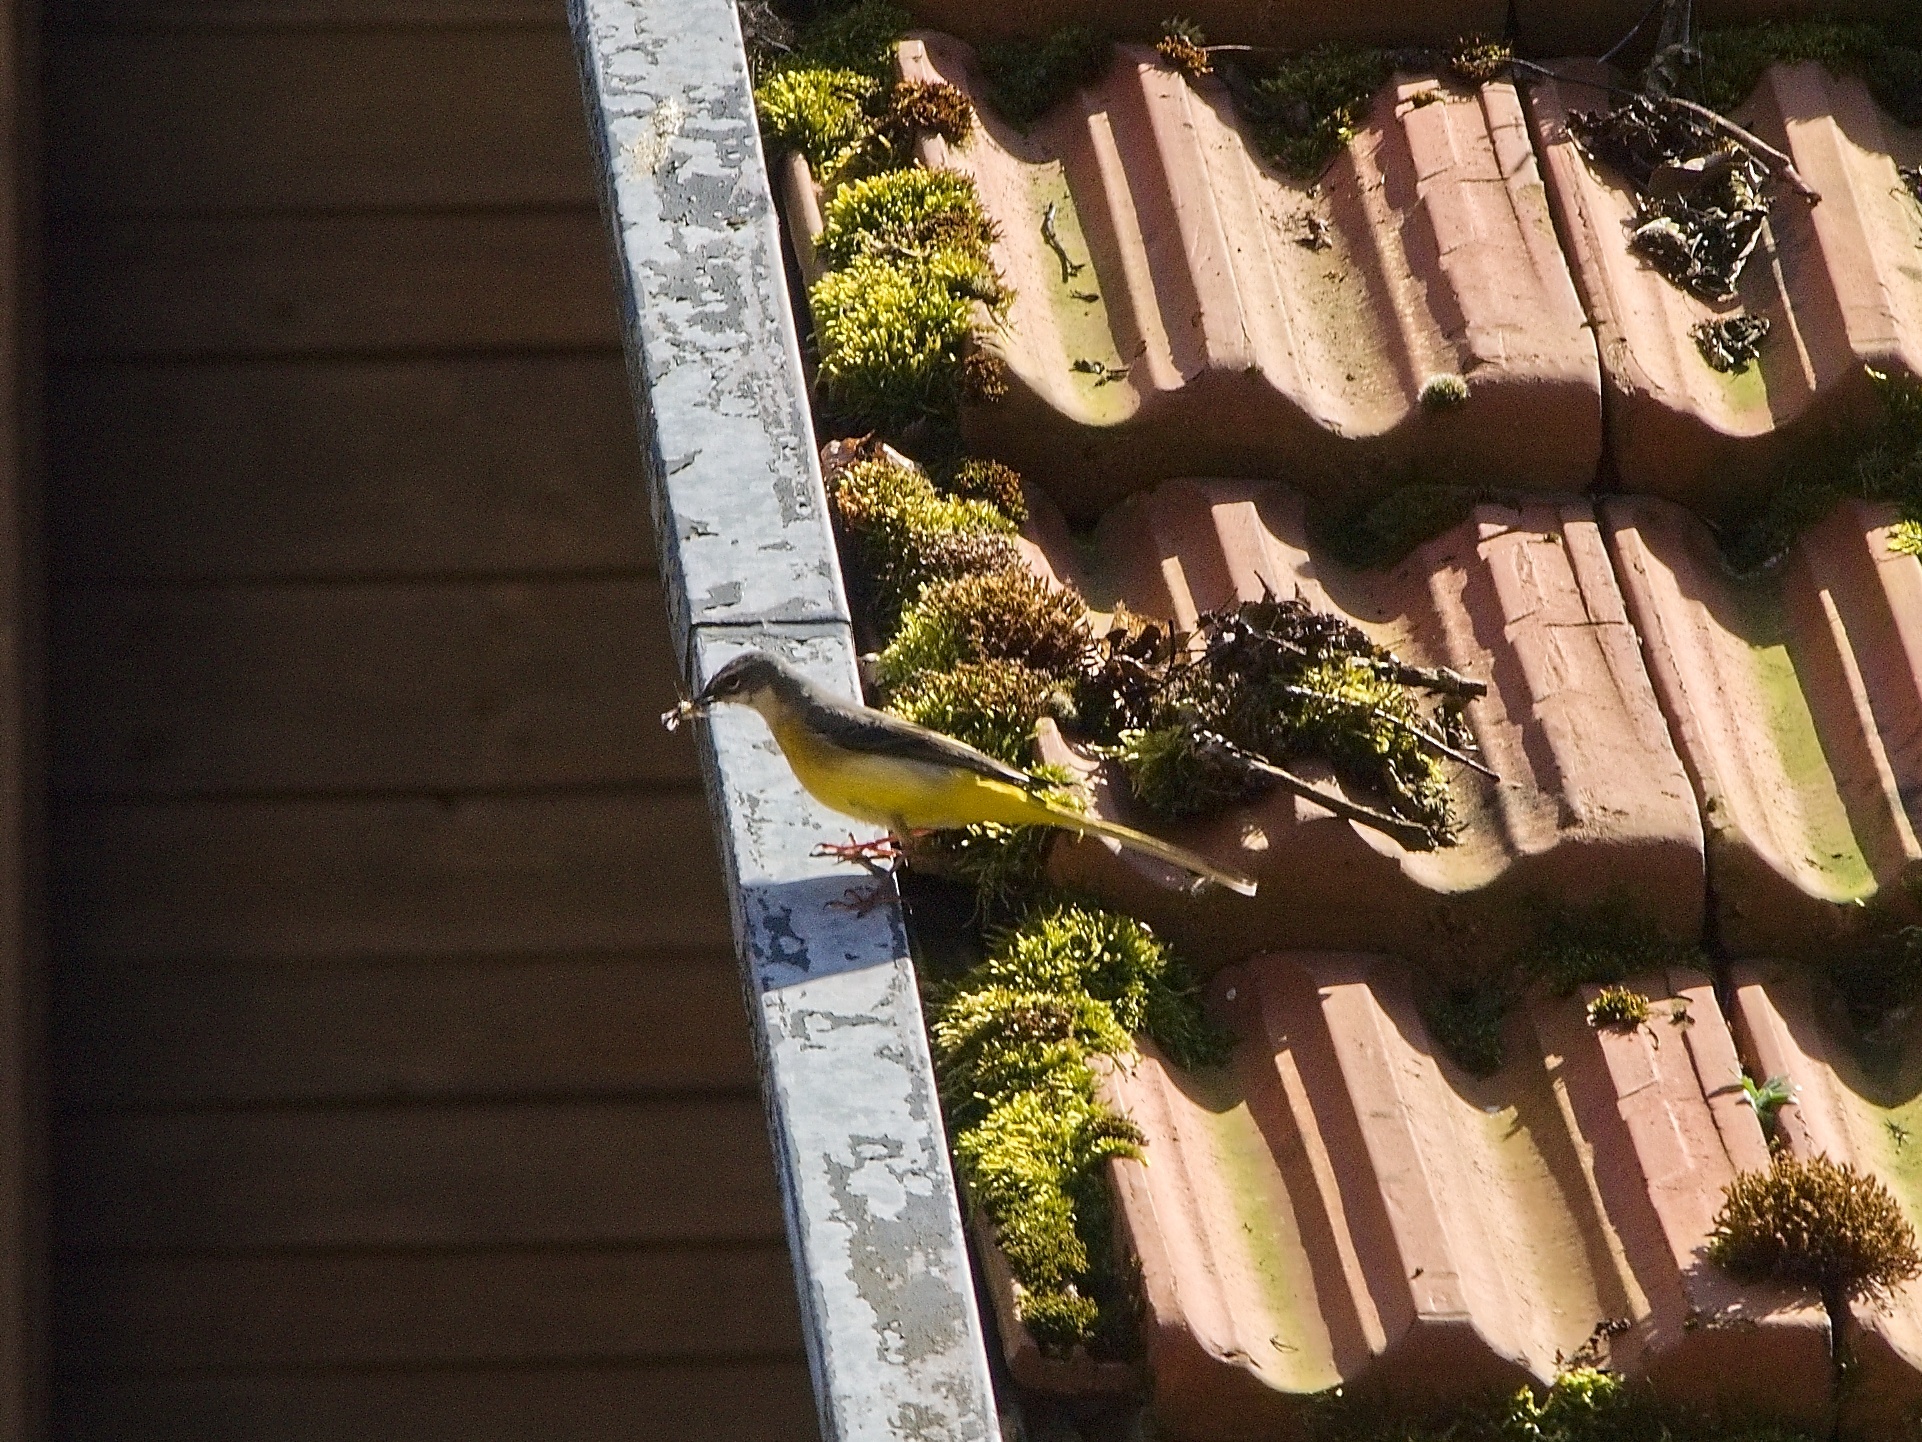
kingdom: Animalia
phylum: Chordata
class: Aves
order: Passeriformes
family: Motacillidae
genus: Motacilla
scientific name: Motacilla cinerea
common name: Grey wagtail
